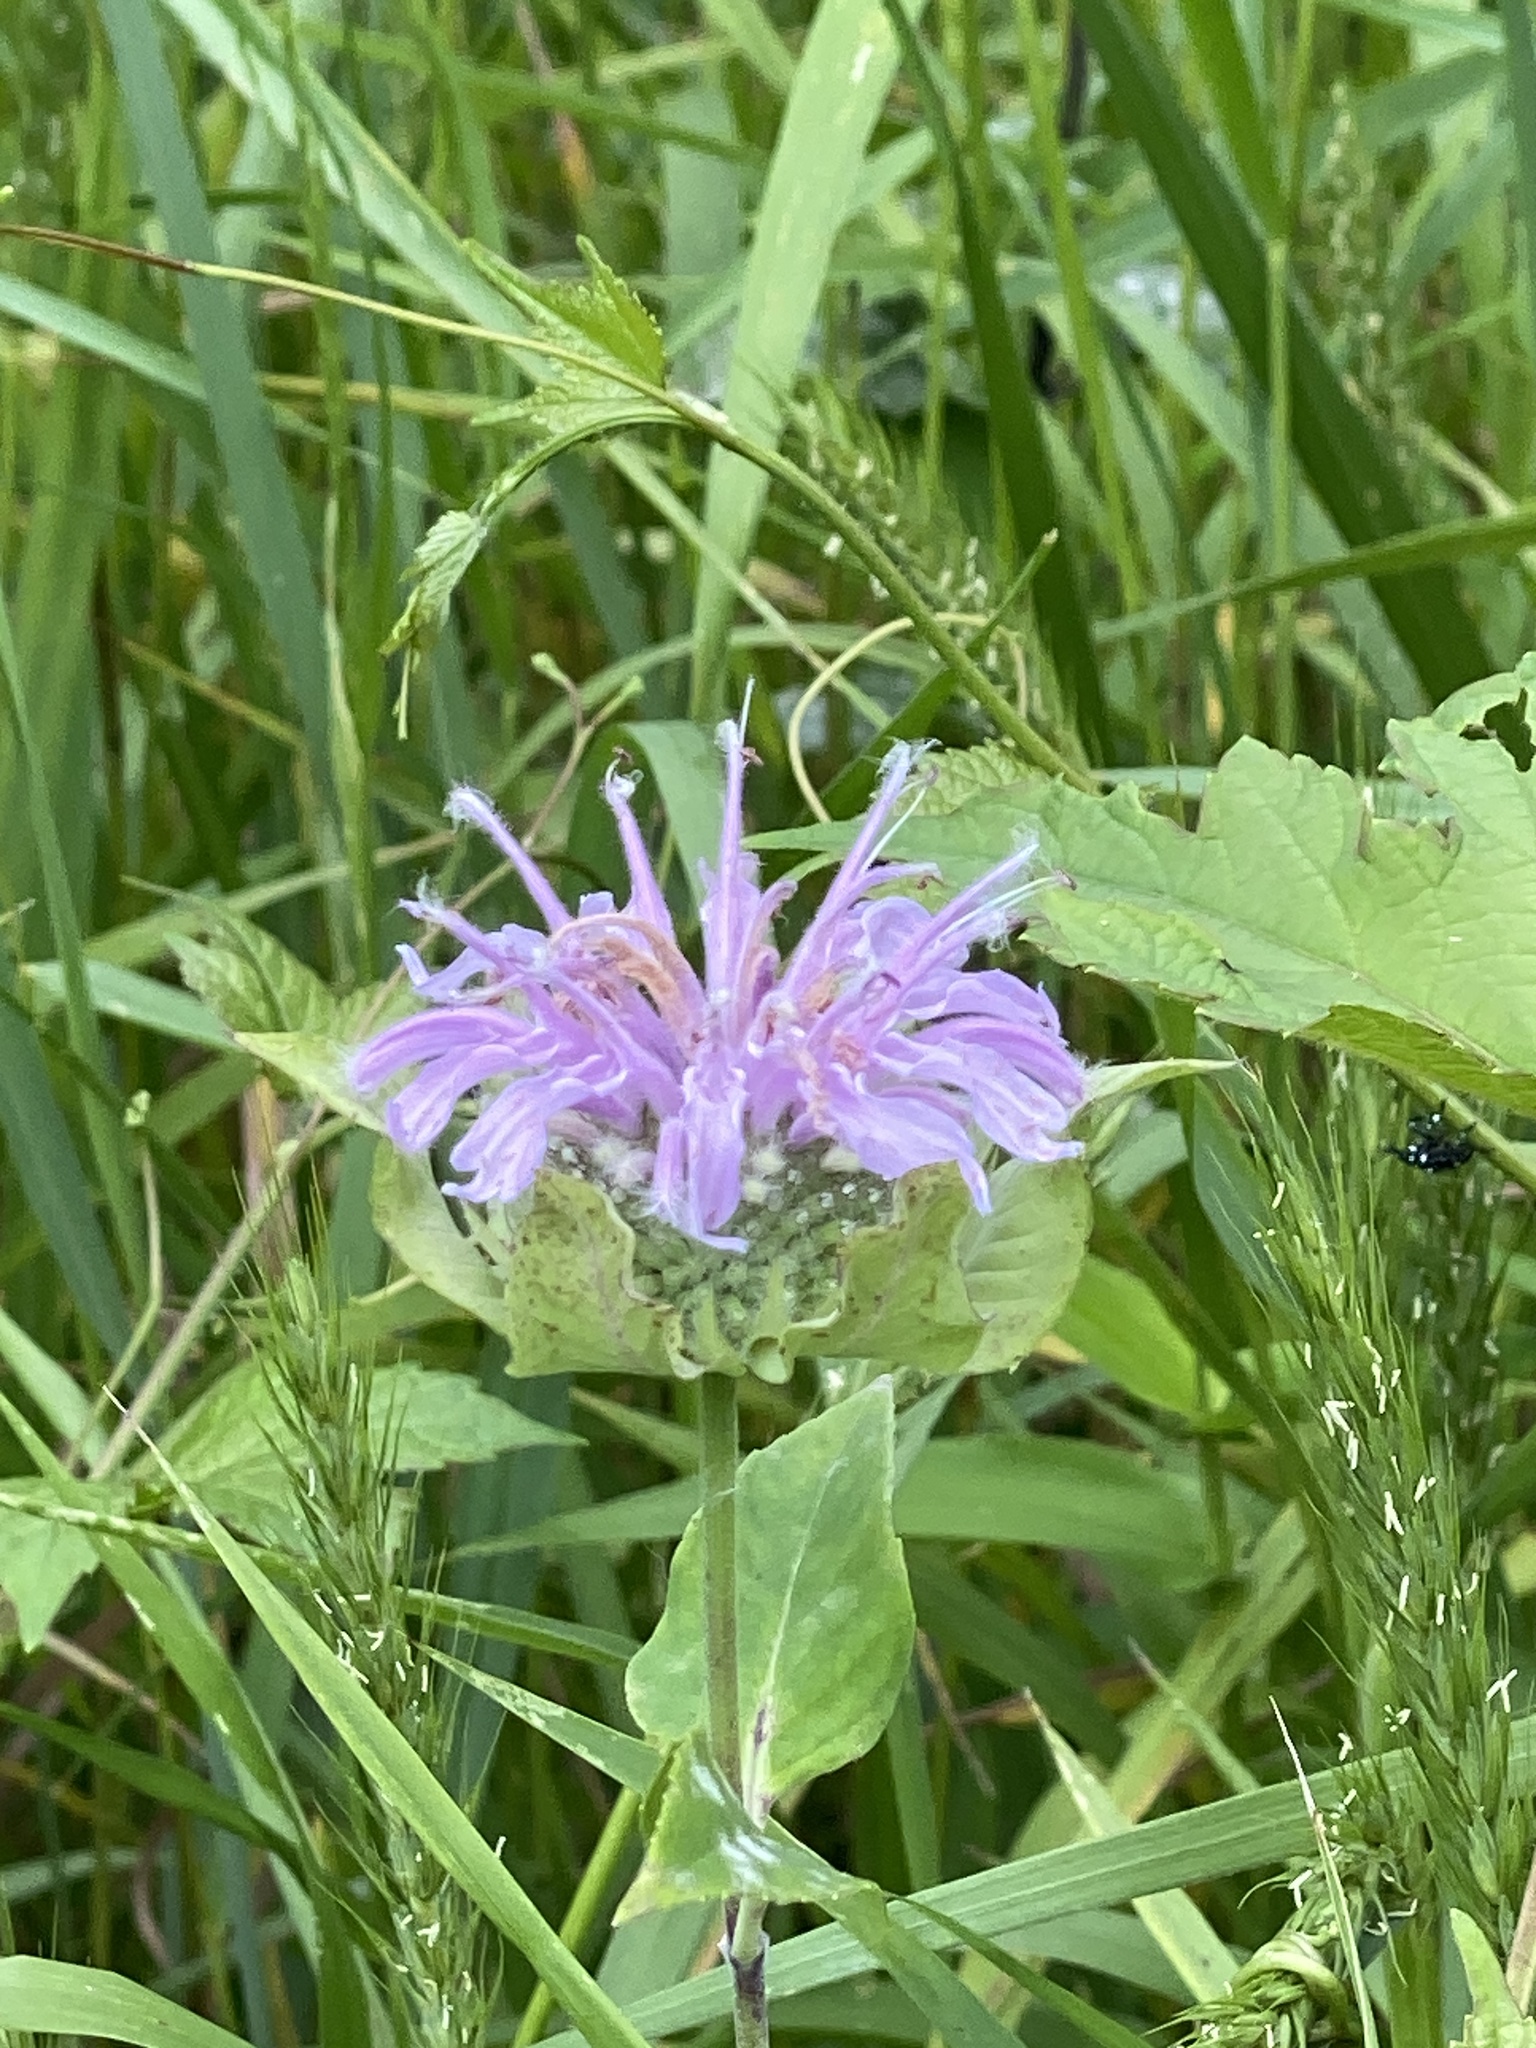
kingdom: Plantae
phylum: Tracheophyta
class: Magnoliopsida
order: Lamiales
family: Lamiaceae
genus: Monarda
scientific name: Monarda fistulosa
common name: Purple beebalm
